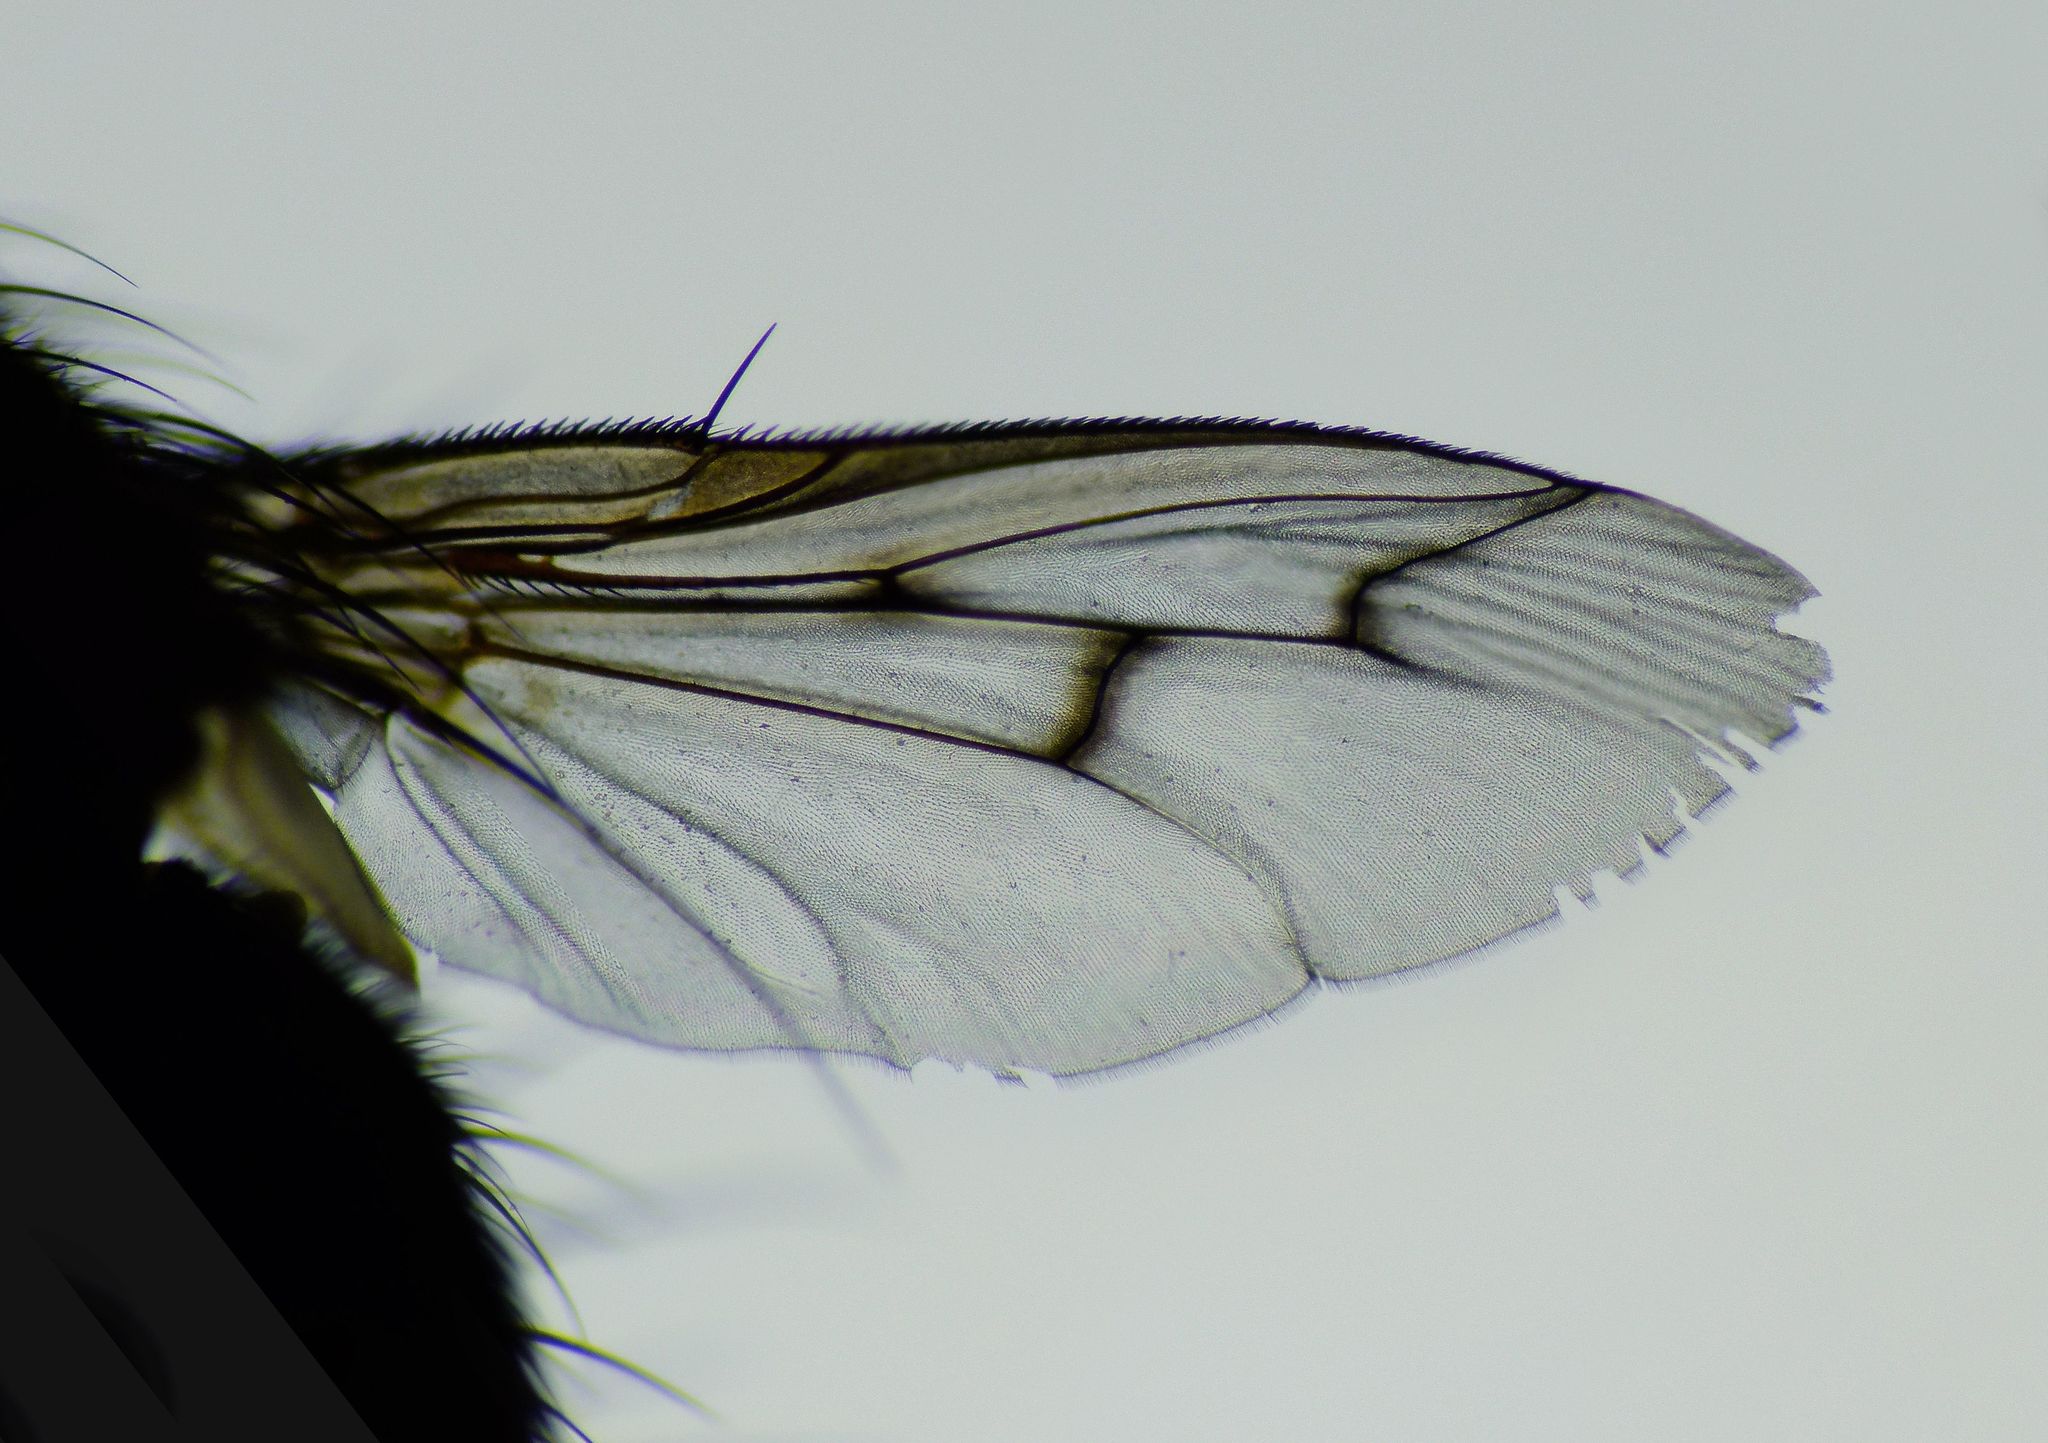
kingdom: Animalia
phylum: Arthropoda
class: Insecta
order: Diptera
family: Tachinidae
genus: Calcager
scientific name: Calcager apertum
